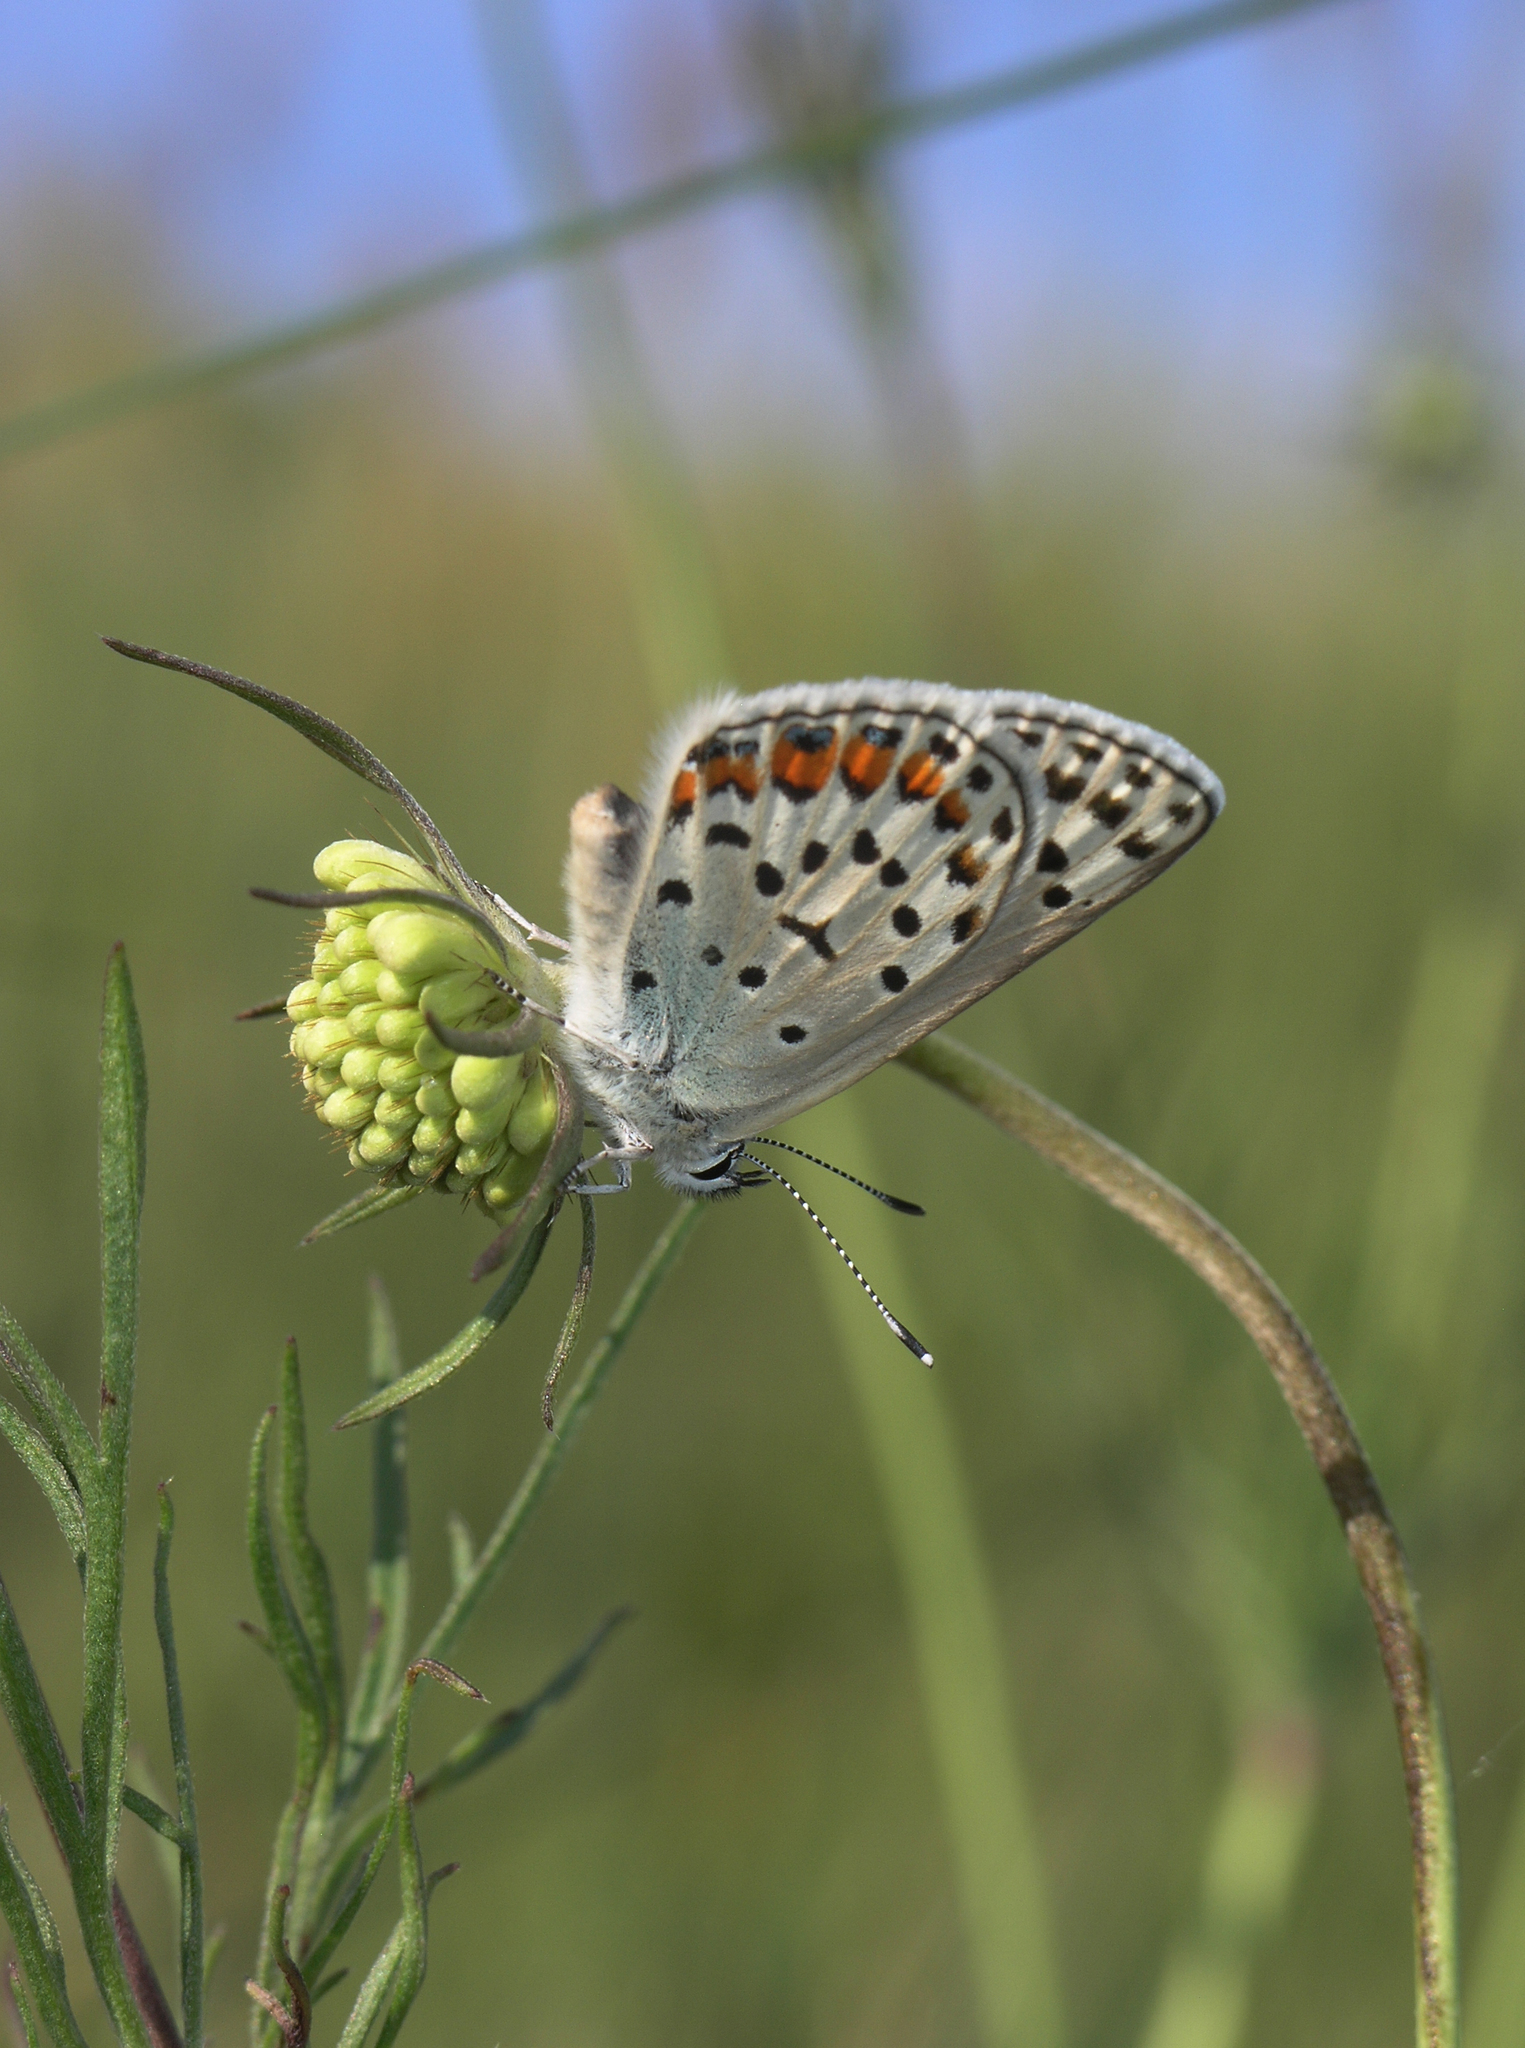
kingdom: Animalia
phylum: Arthropoda
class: Insecta
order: Lepidoptera
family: Lycaenidae
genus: Glabroculus
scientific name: Glabroculus cyane
